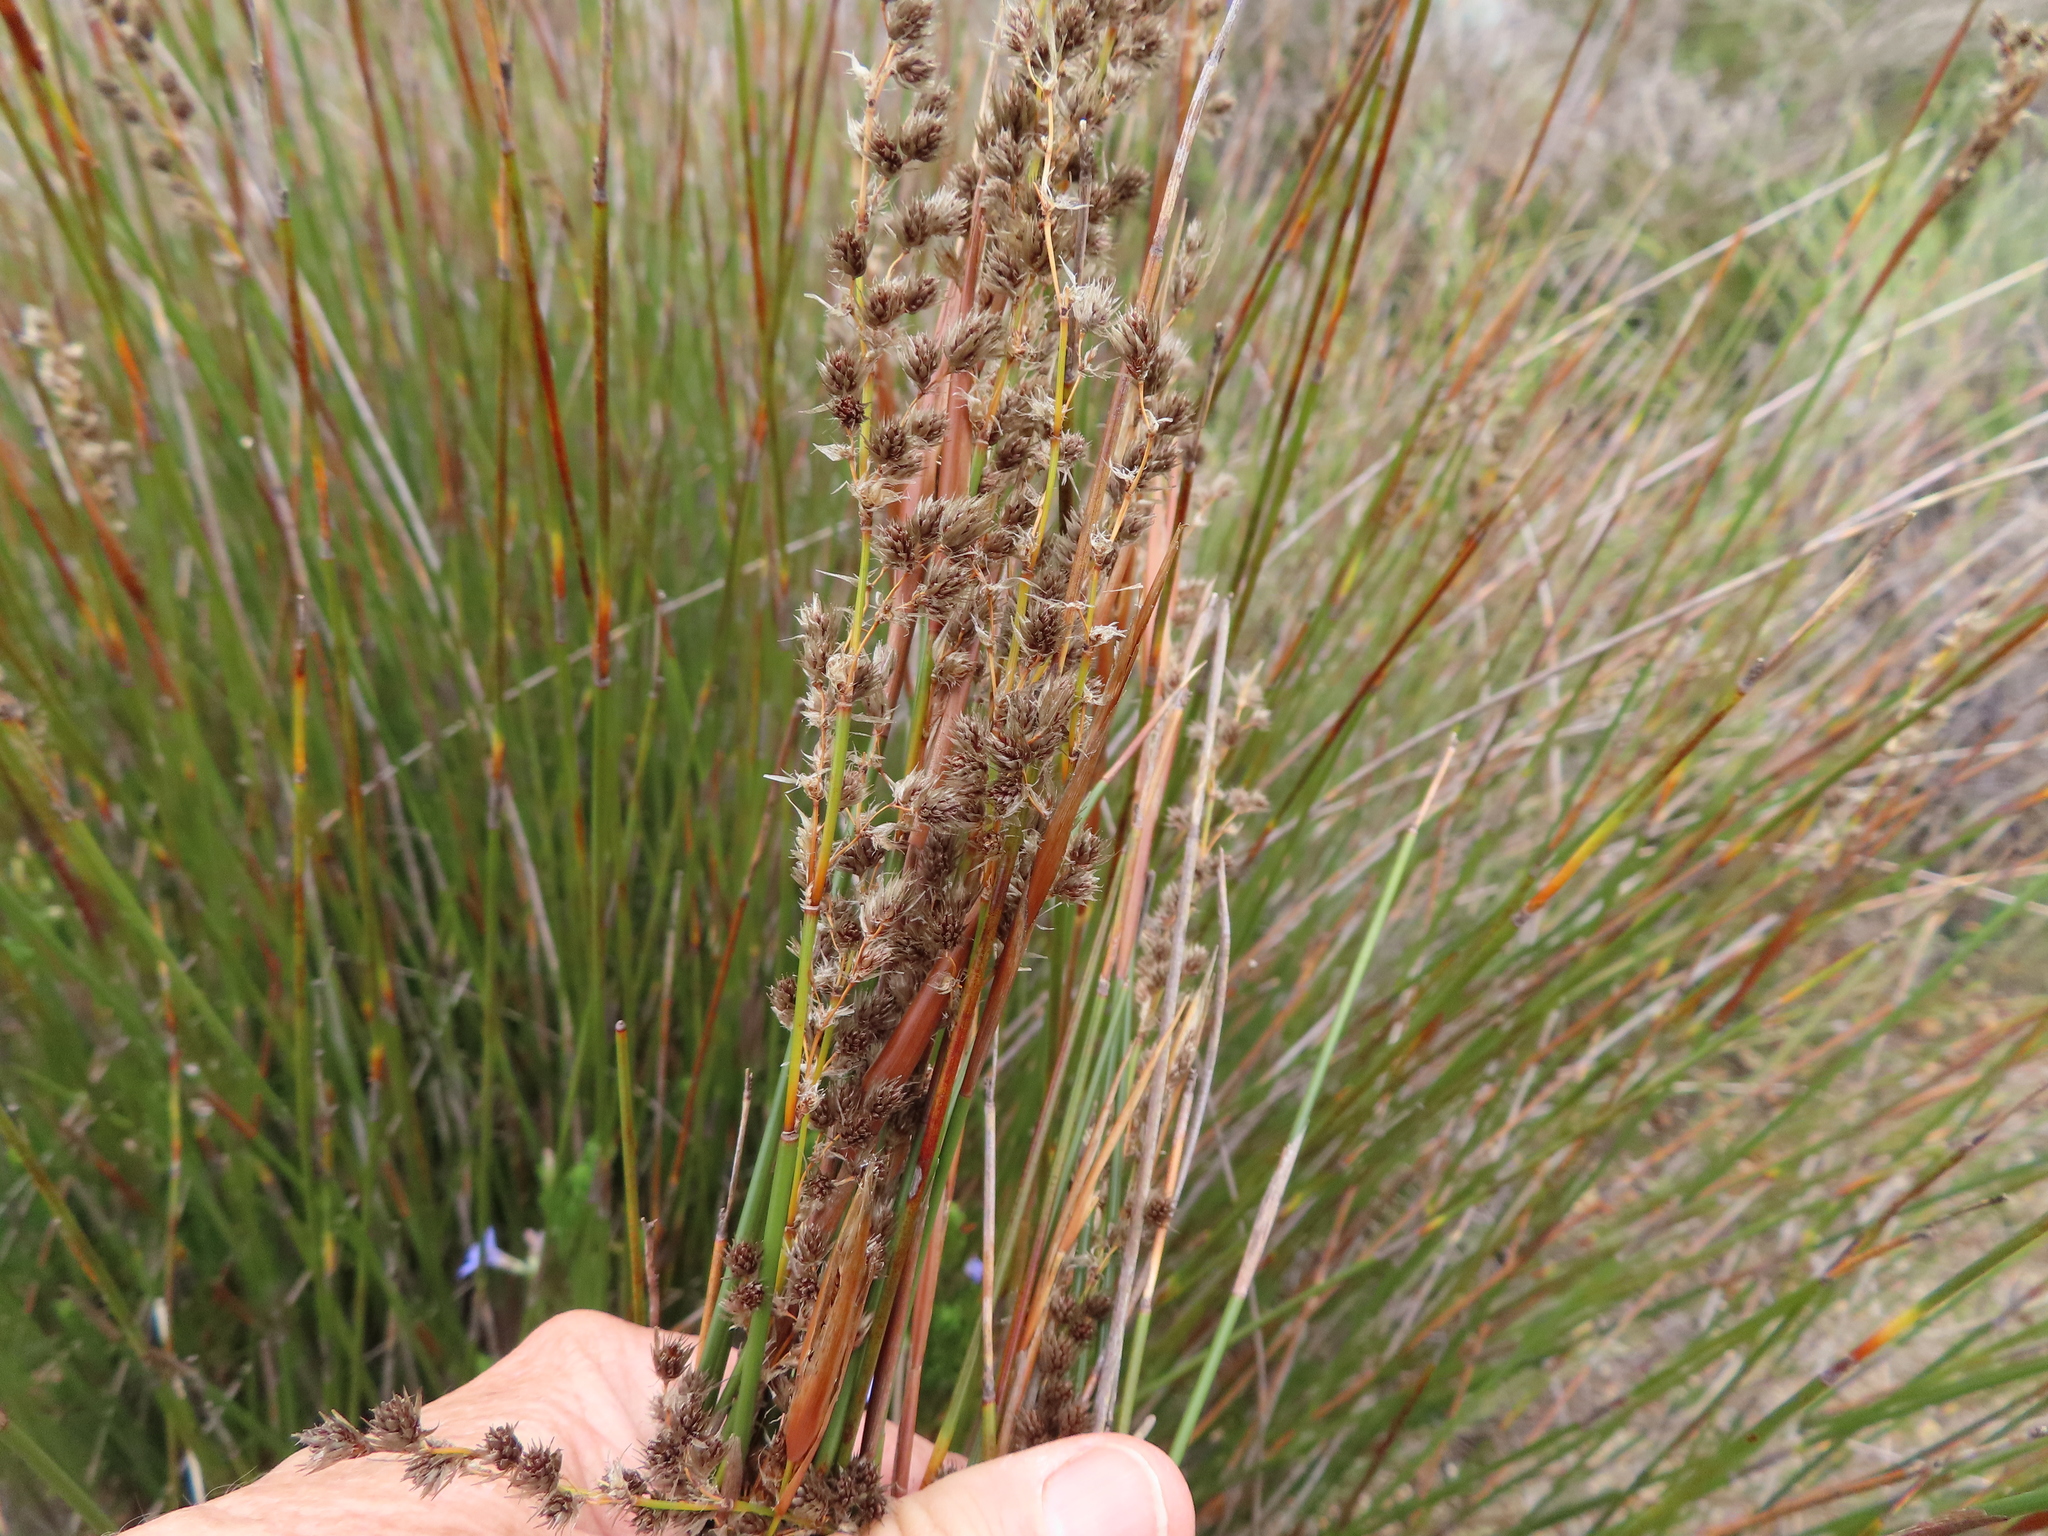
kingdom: Plantae
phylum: Tracheophyta
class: Liliopsida
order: Poales
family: Restionaceae
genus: Hypodiscus
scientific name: Hypodiscus argenteus
